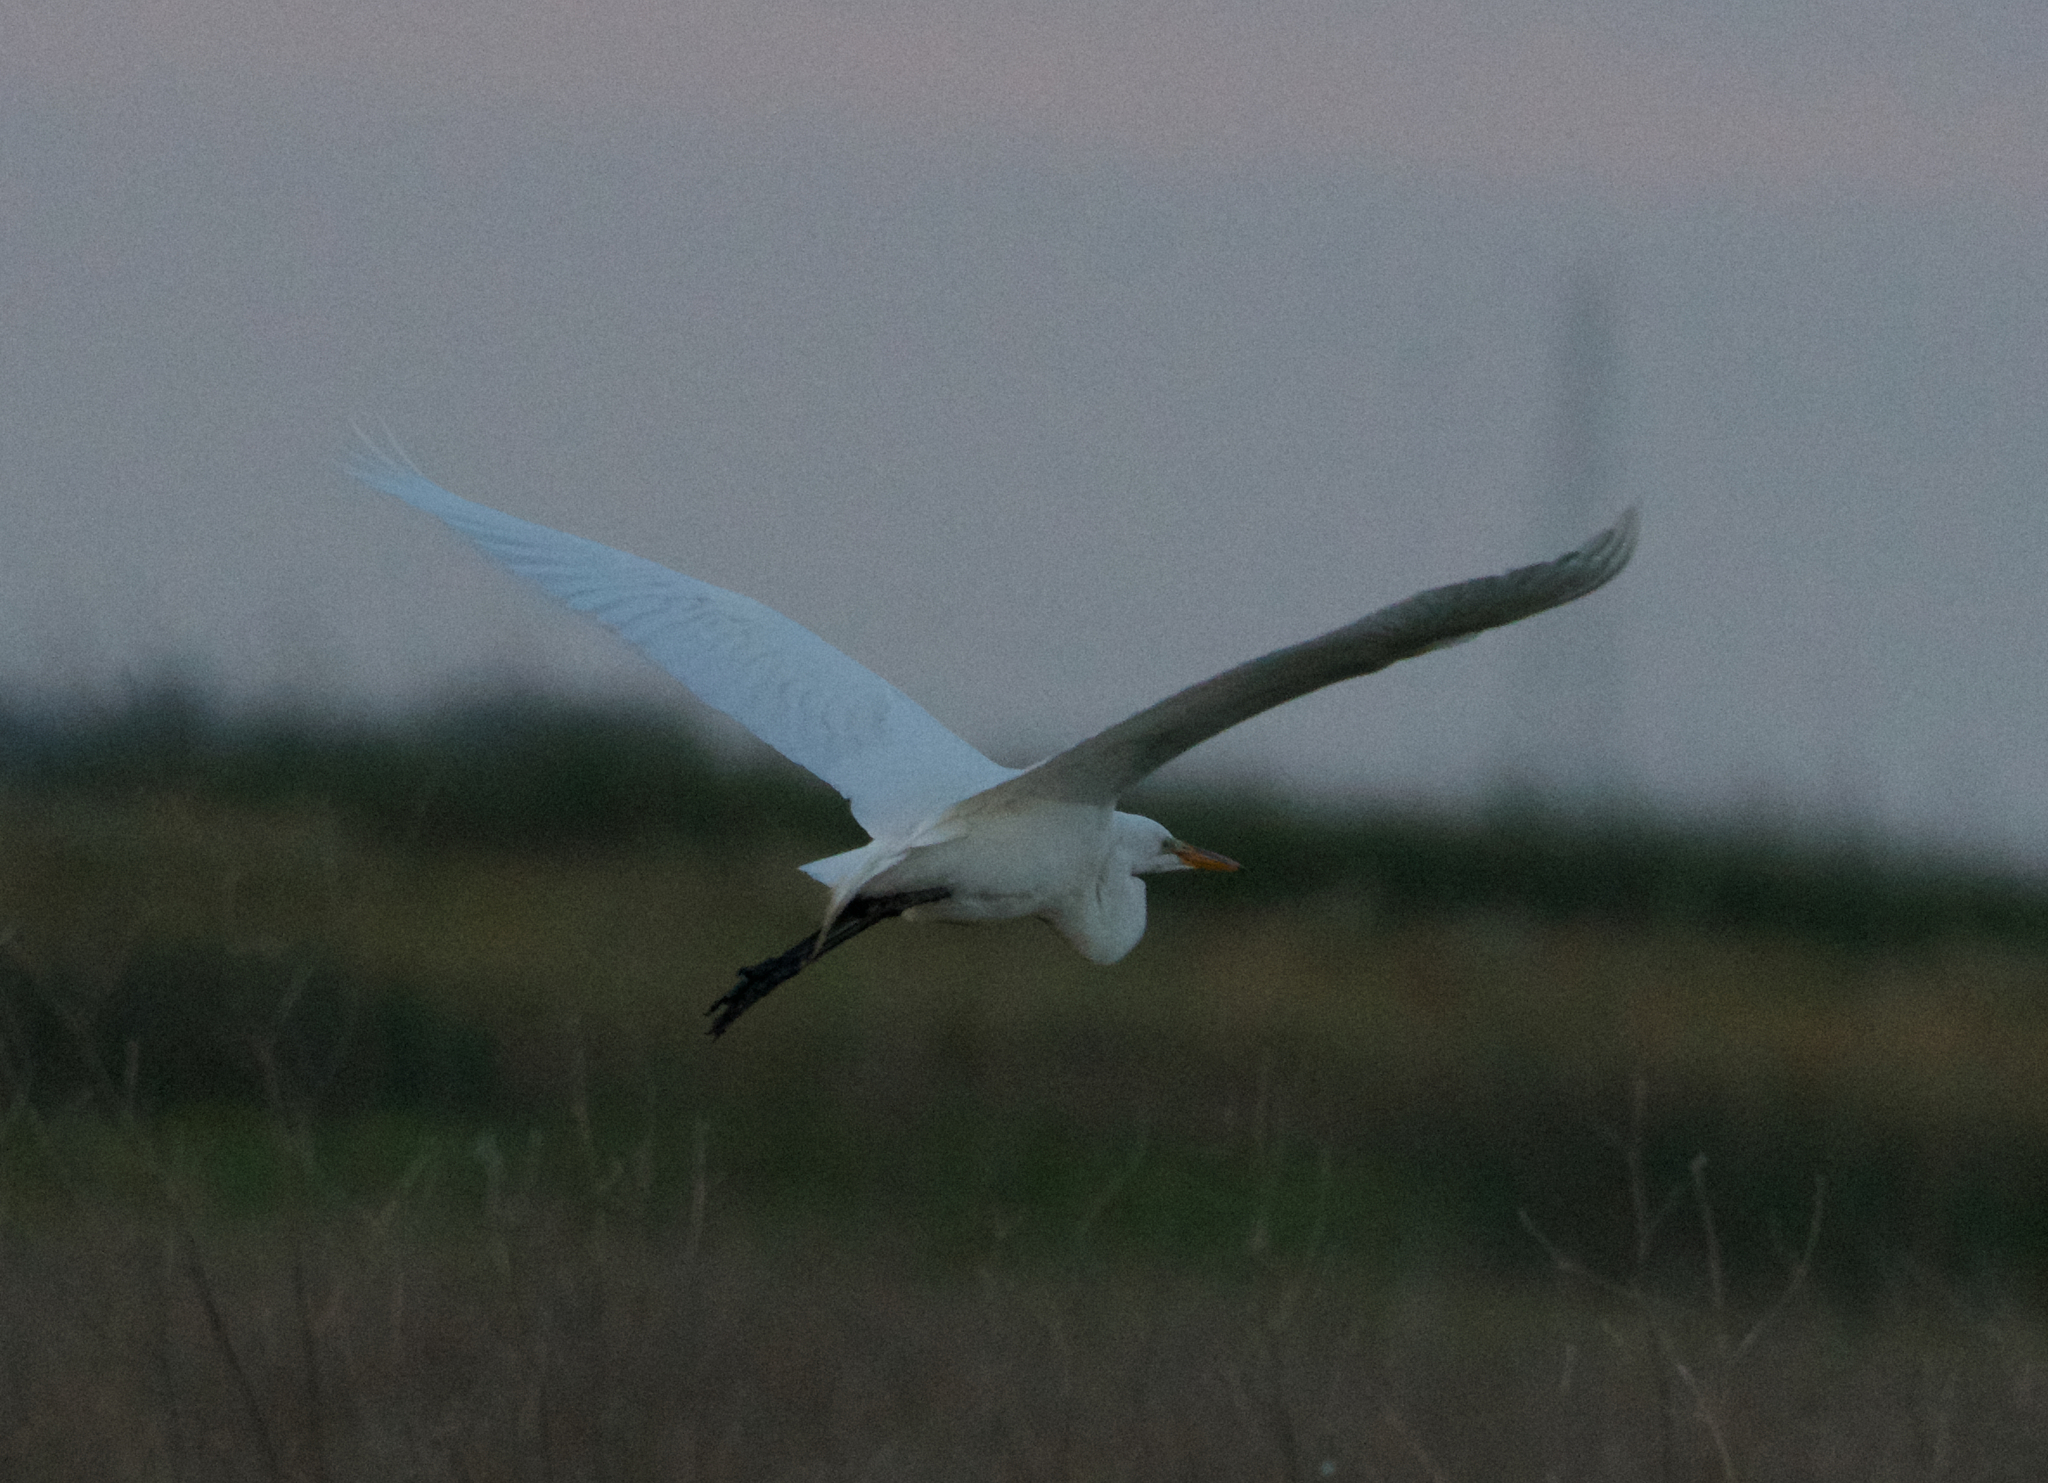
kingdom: Animalia
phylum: Chordata
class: Aves
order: Pelecaniformes
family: Ardeidae
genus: Ardea
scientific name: Ardea alba
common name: Great egret
